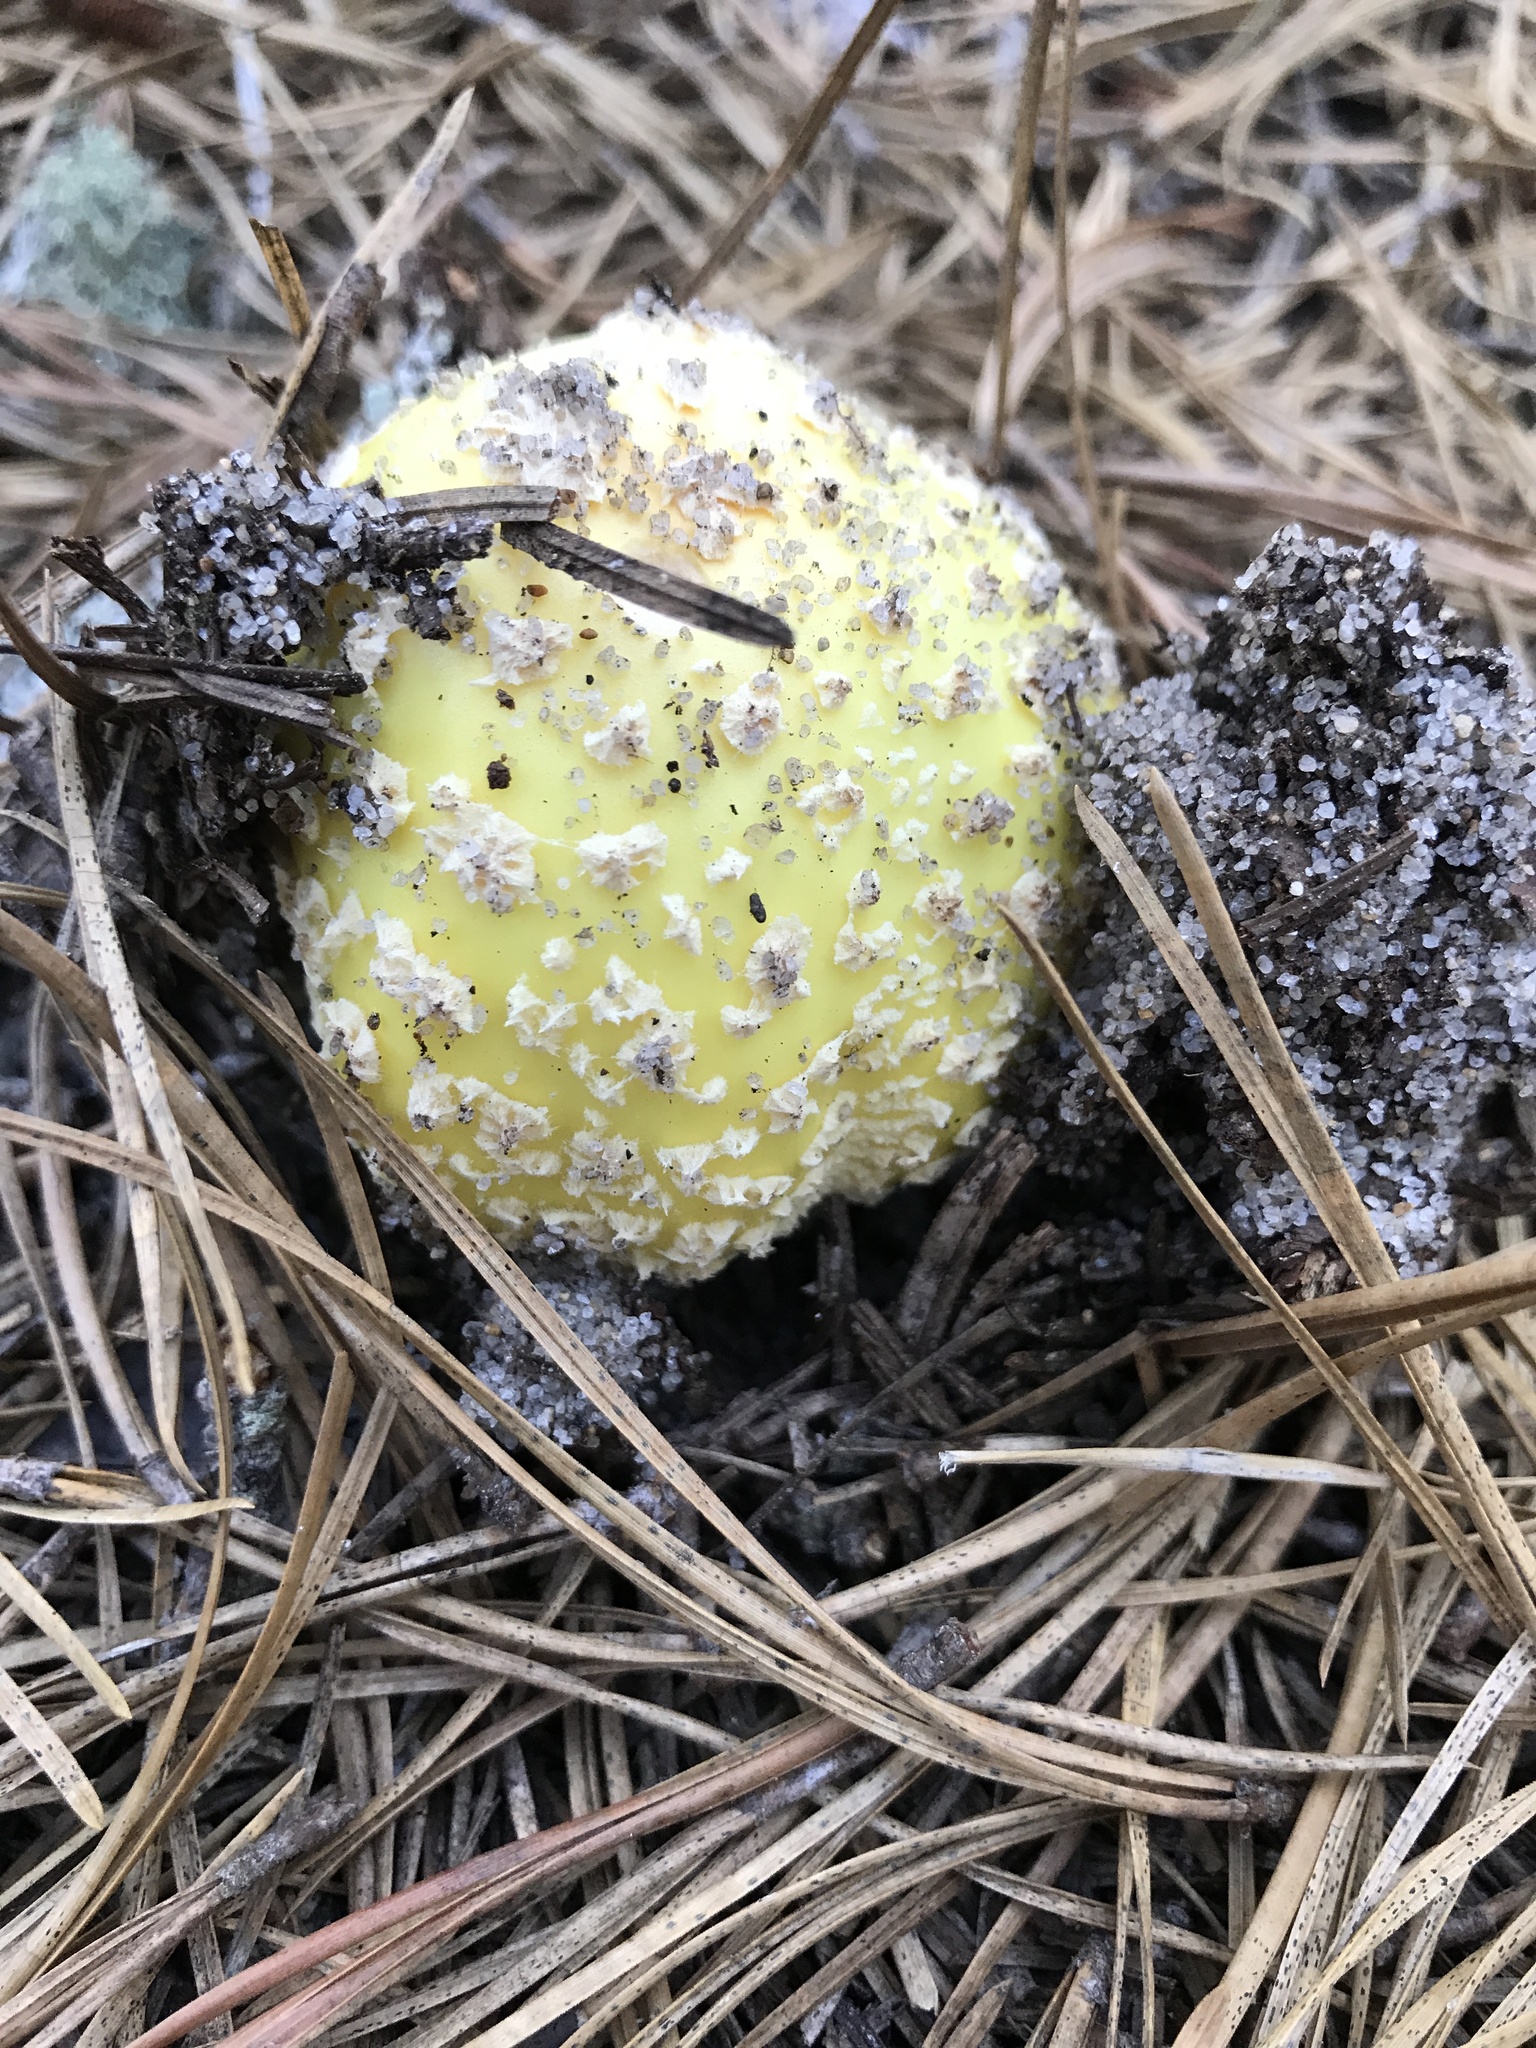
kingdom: Fungi
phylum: Basidiomycota
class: Agaricomycetes
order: Agaricales
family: Amanitaceae
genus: Amanita
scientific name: Amanita muscaria
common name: Fly agaric
